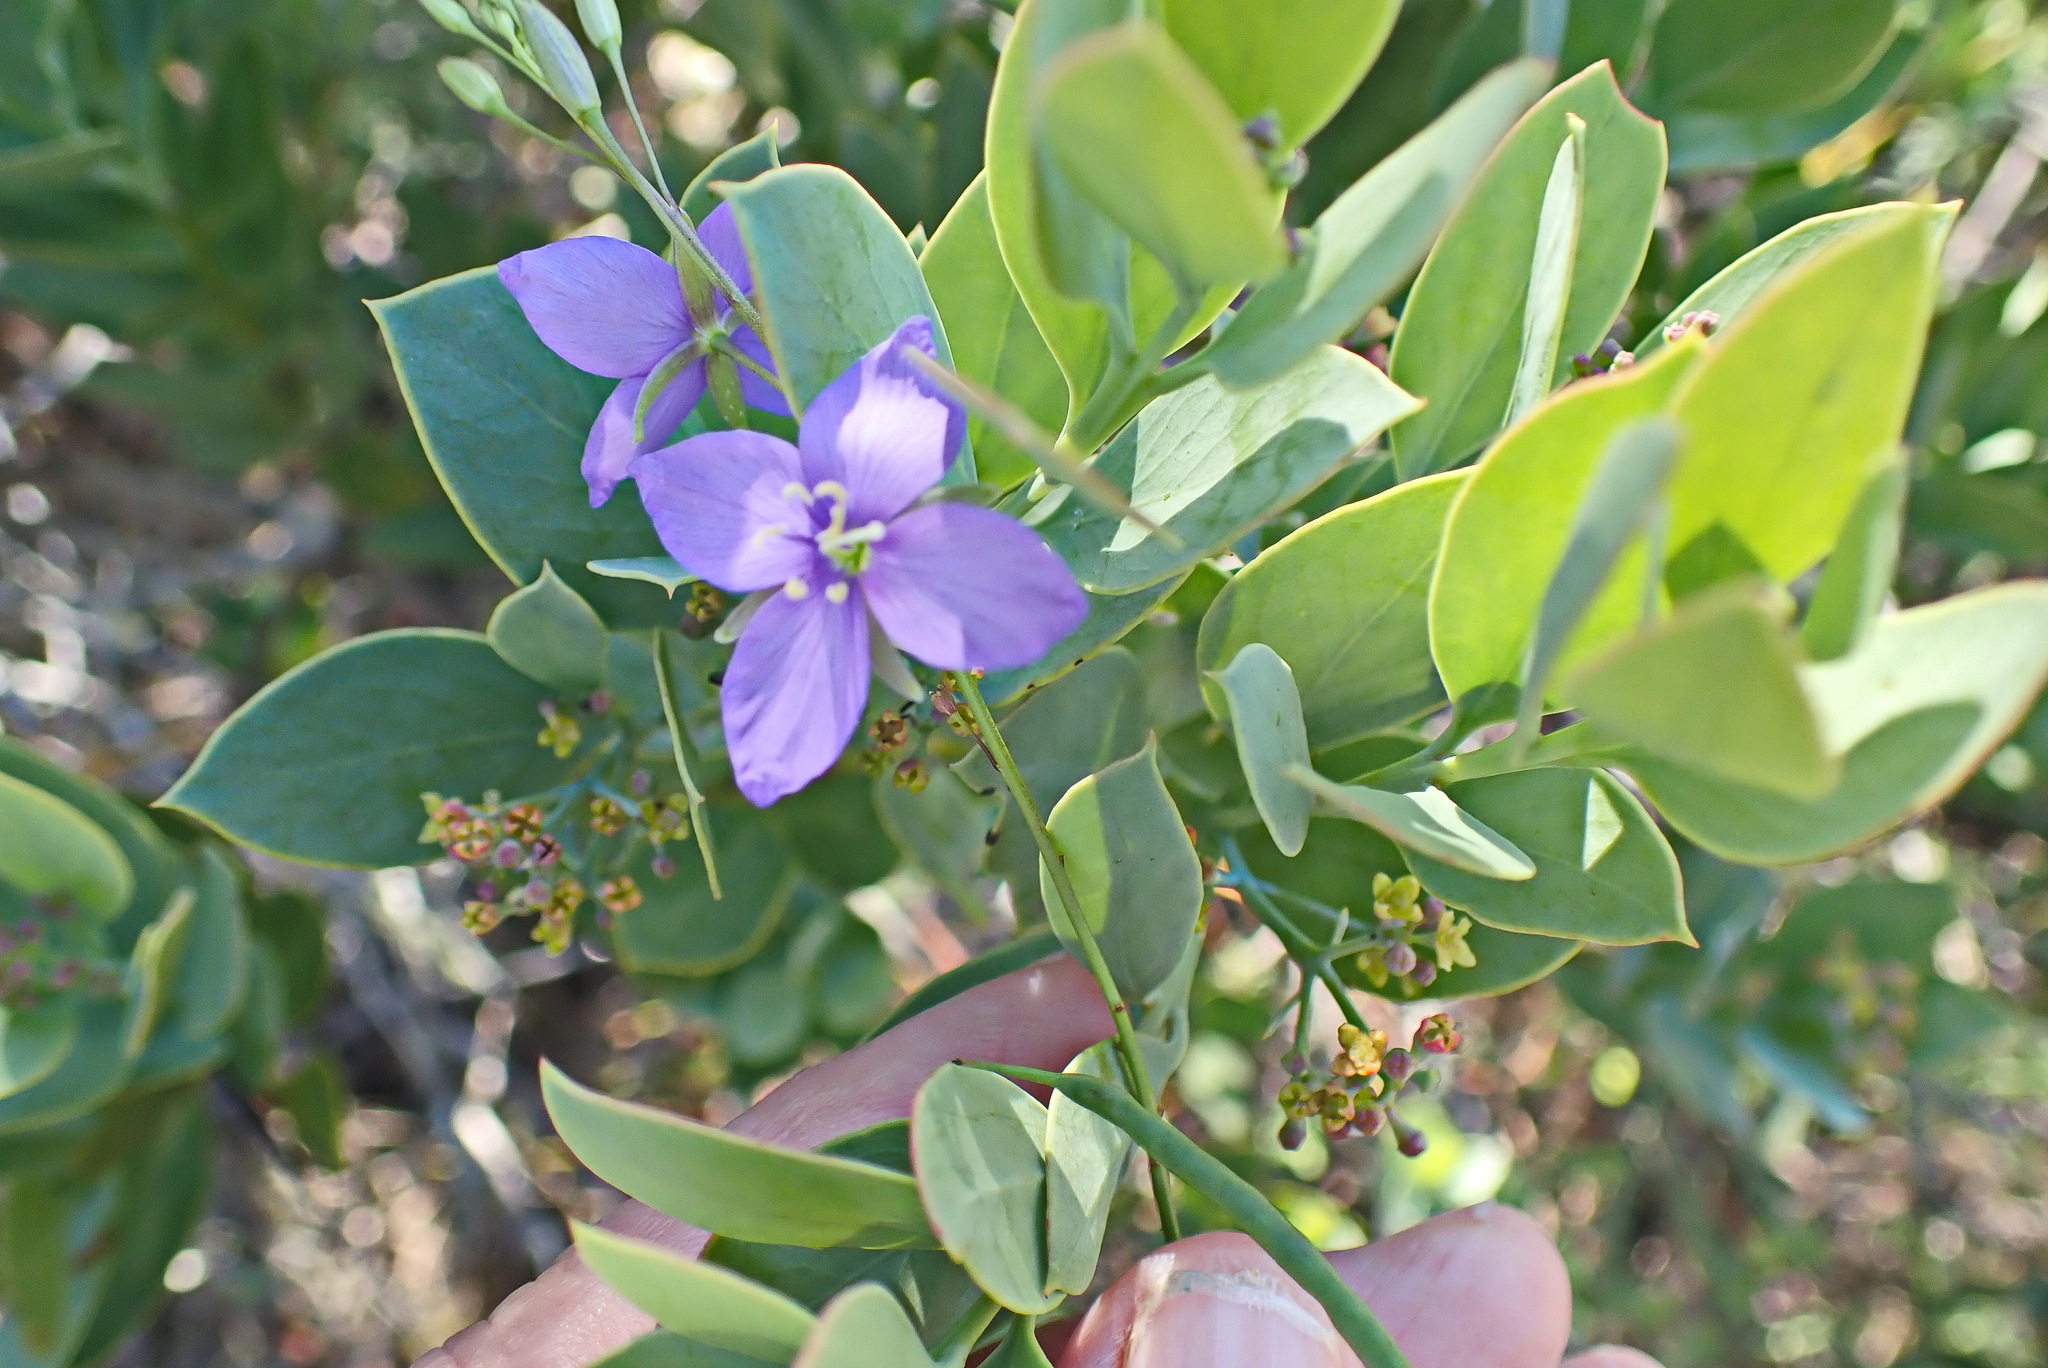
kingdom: Plantae
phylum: Tracheophyta
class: Magnoliopsida
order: Brassicales
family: Brassicaceae
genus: Heliophila
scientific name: Heliophila subulata
